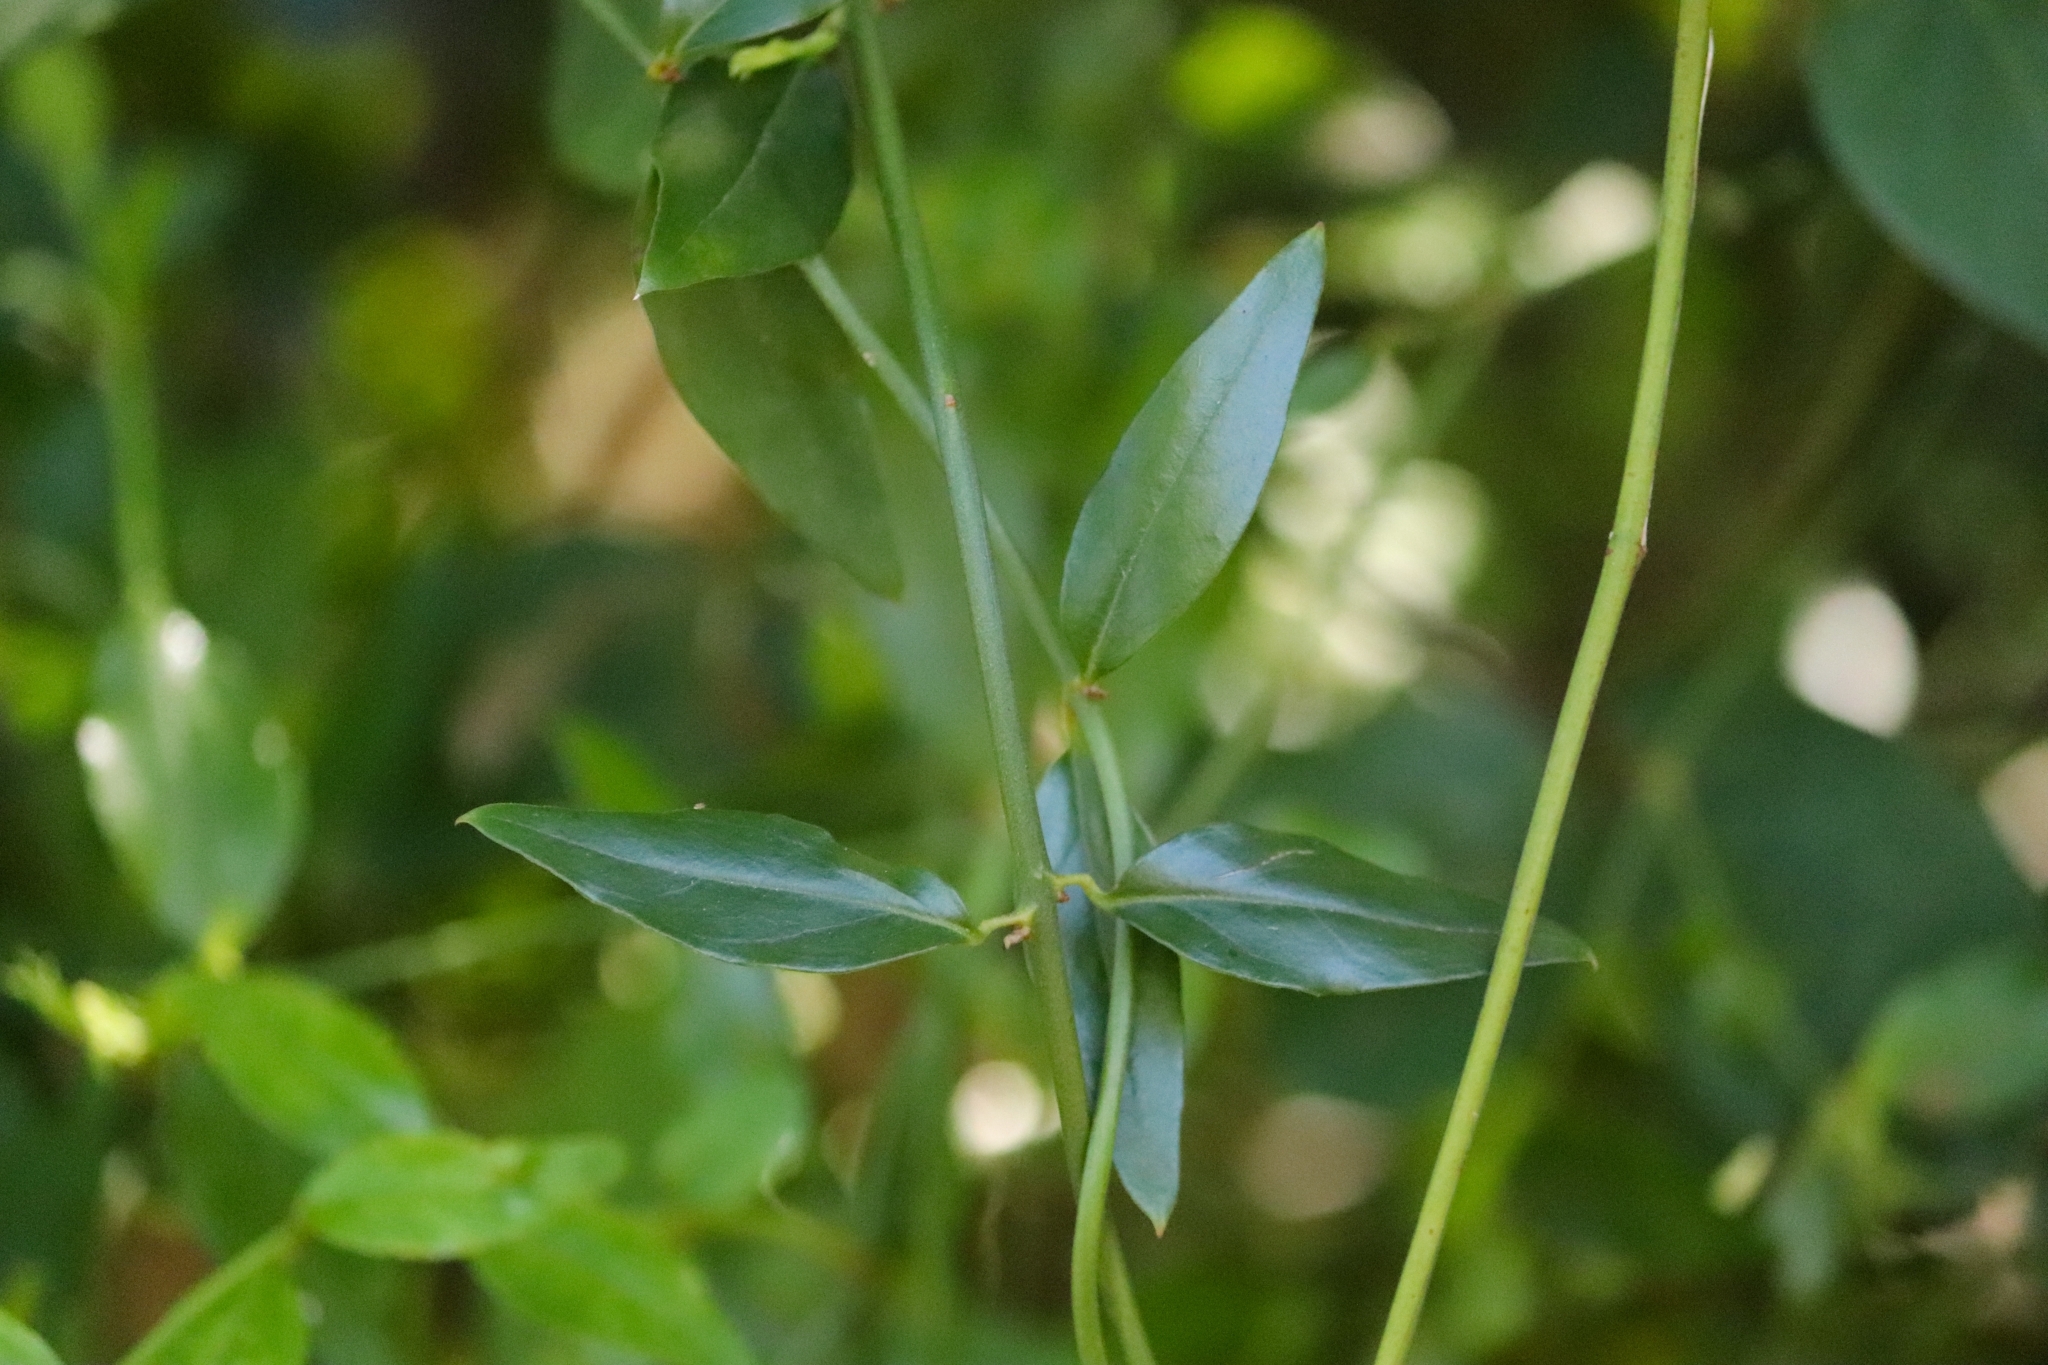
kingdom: Plantae
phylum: Tracheophyta
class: Magnoliopsida
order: Lamiales
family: Oleaceae
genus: Jasminum
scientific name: Jasminum angustifolium
